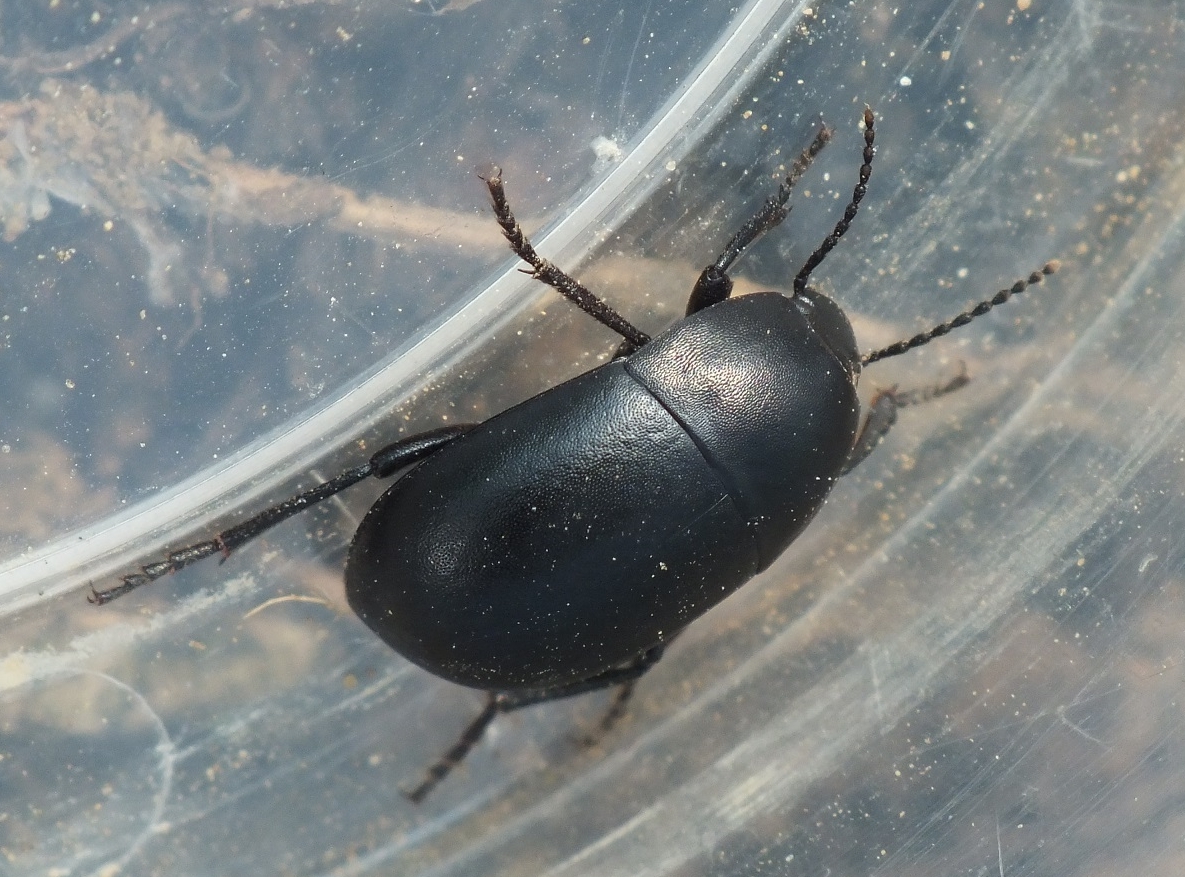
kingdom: Animalia
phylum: Arthropoda
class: Insecta
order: Coleoptera
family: Tenebrionidae
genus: Oodescelis
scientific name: Oodescelis polita
